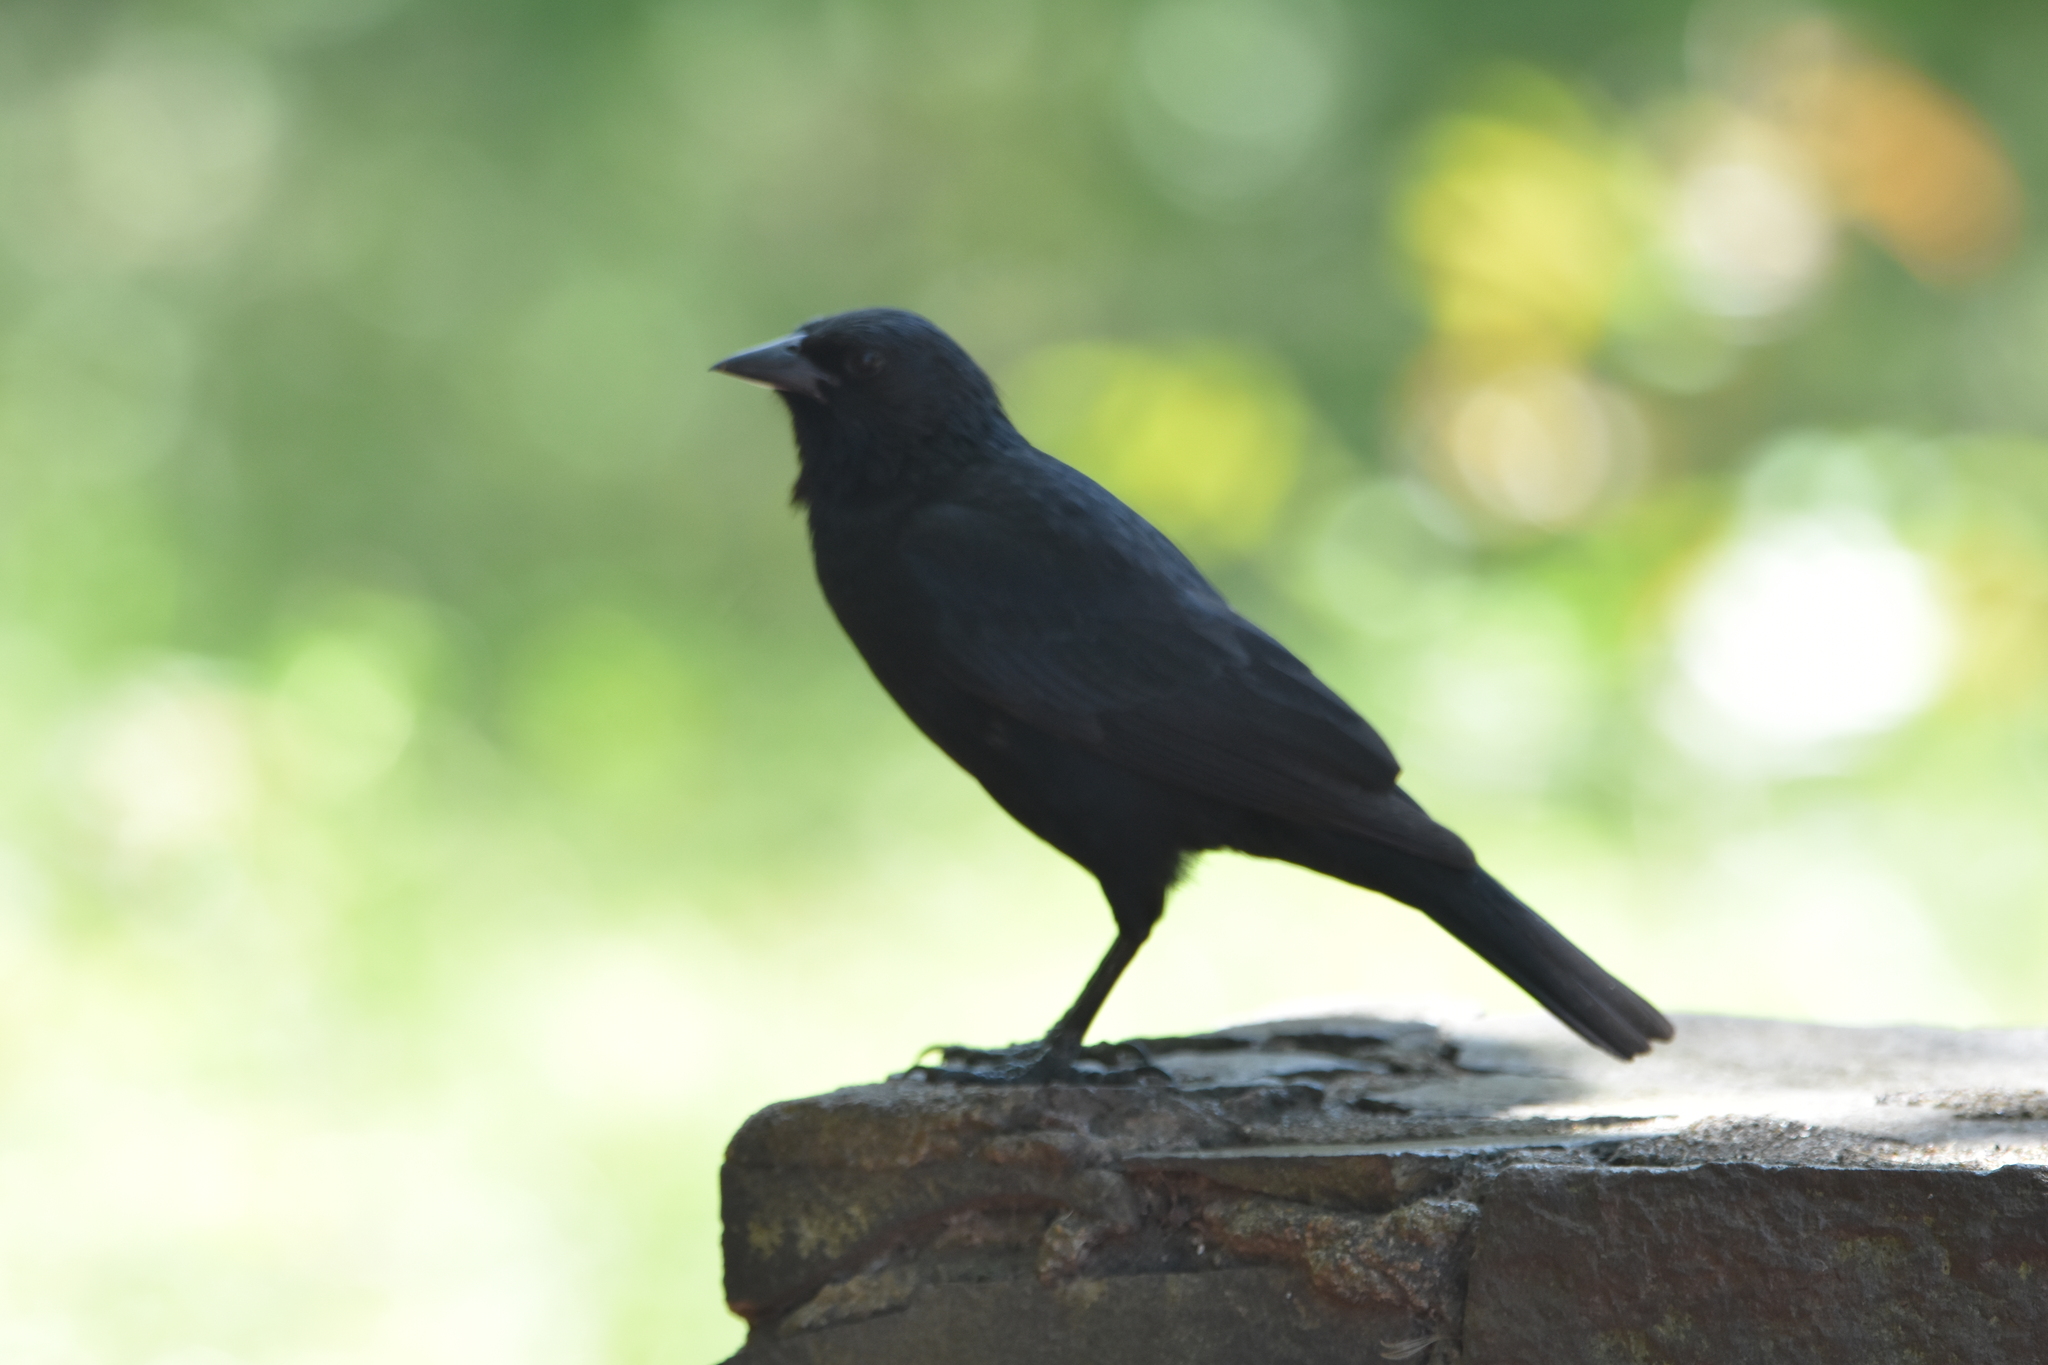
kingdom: Animalia
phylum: Chordata
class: Aves
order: Passeriformes
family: Icteridae
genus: Gnorimopsar
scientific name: Gnorimopsar chopi
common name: Chopi blackbird
